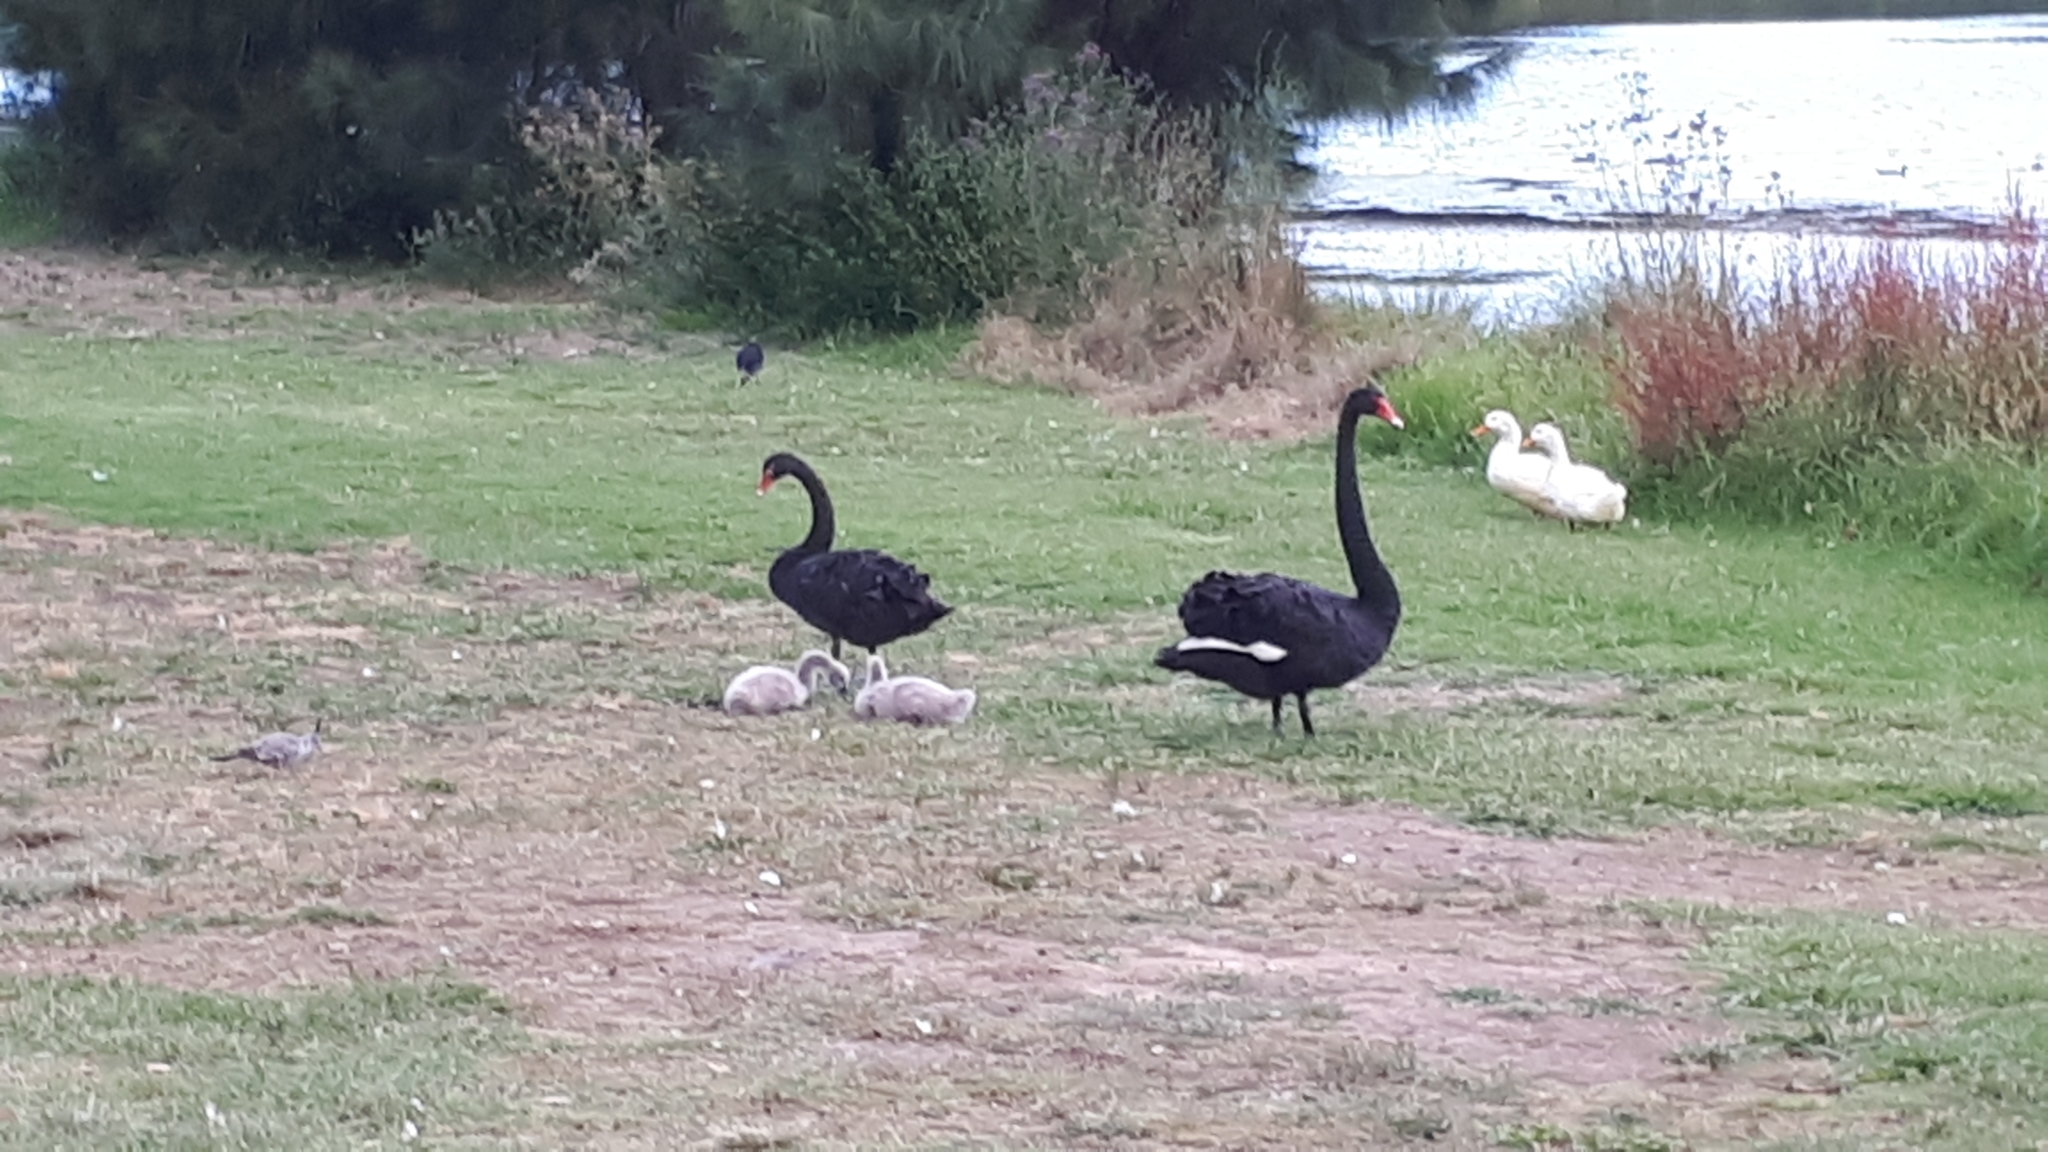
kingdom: Animalia
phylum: Chordata
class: Aves
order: Anseriformes
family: Anatidae
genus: Cygnus
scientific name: Cygnus atratus
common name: Black swan
